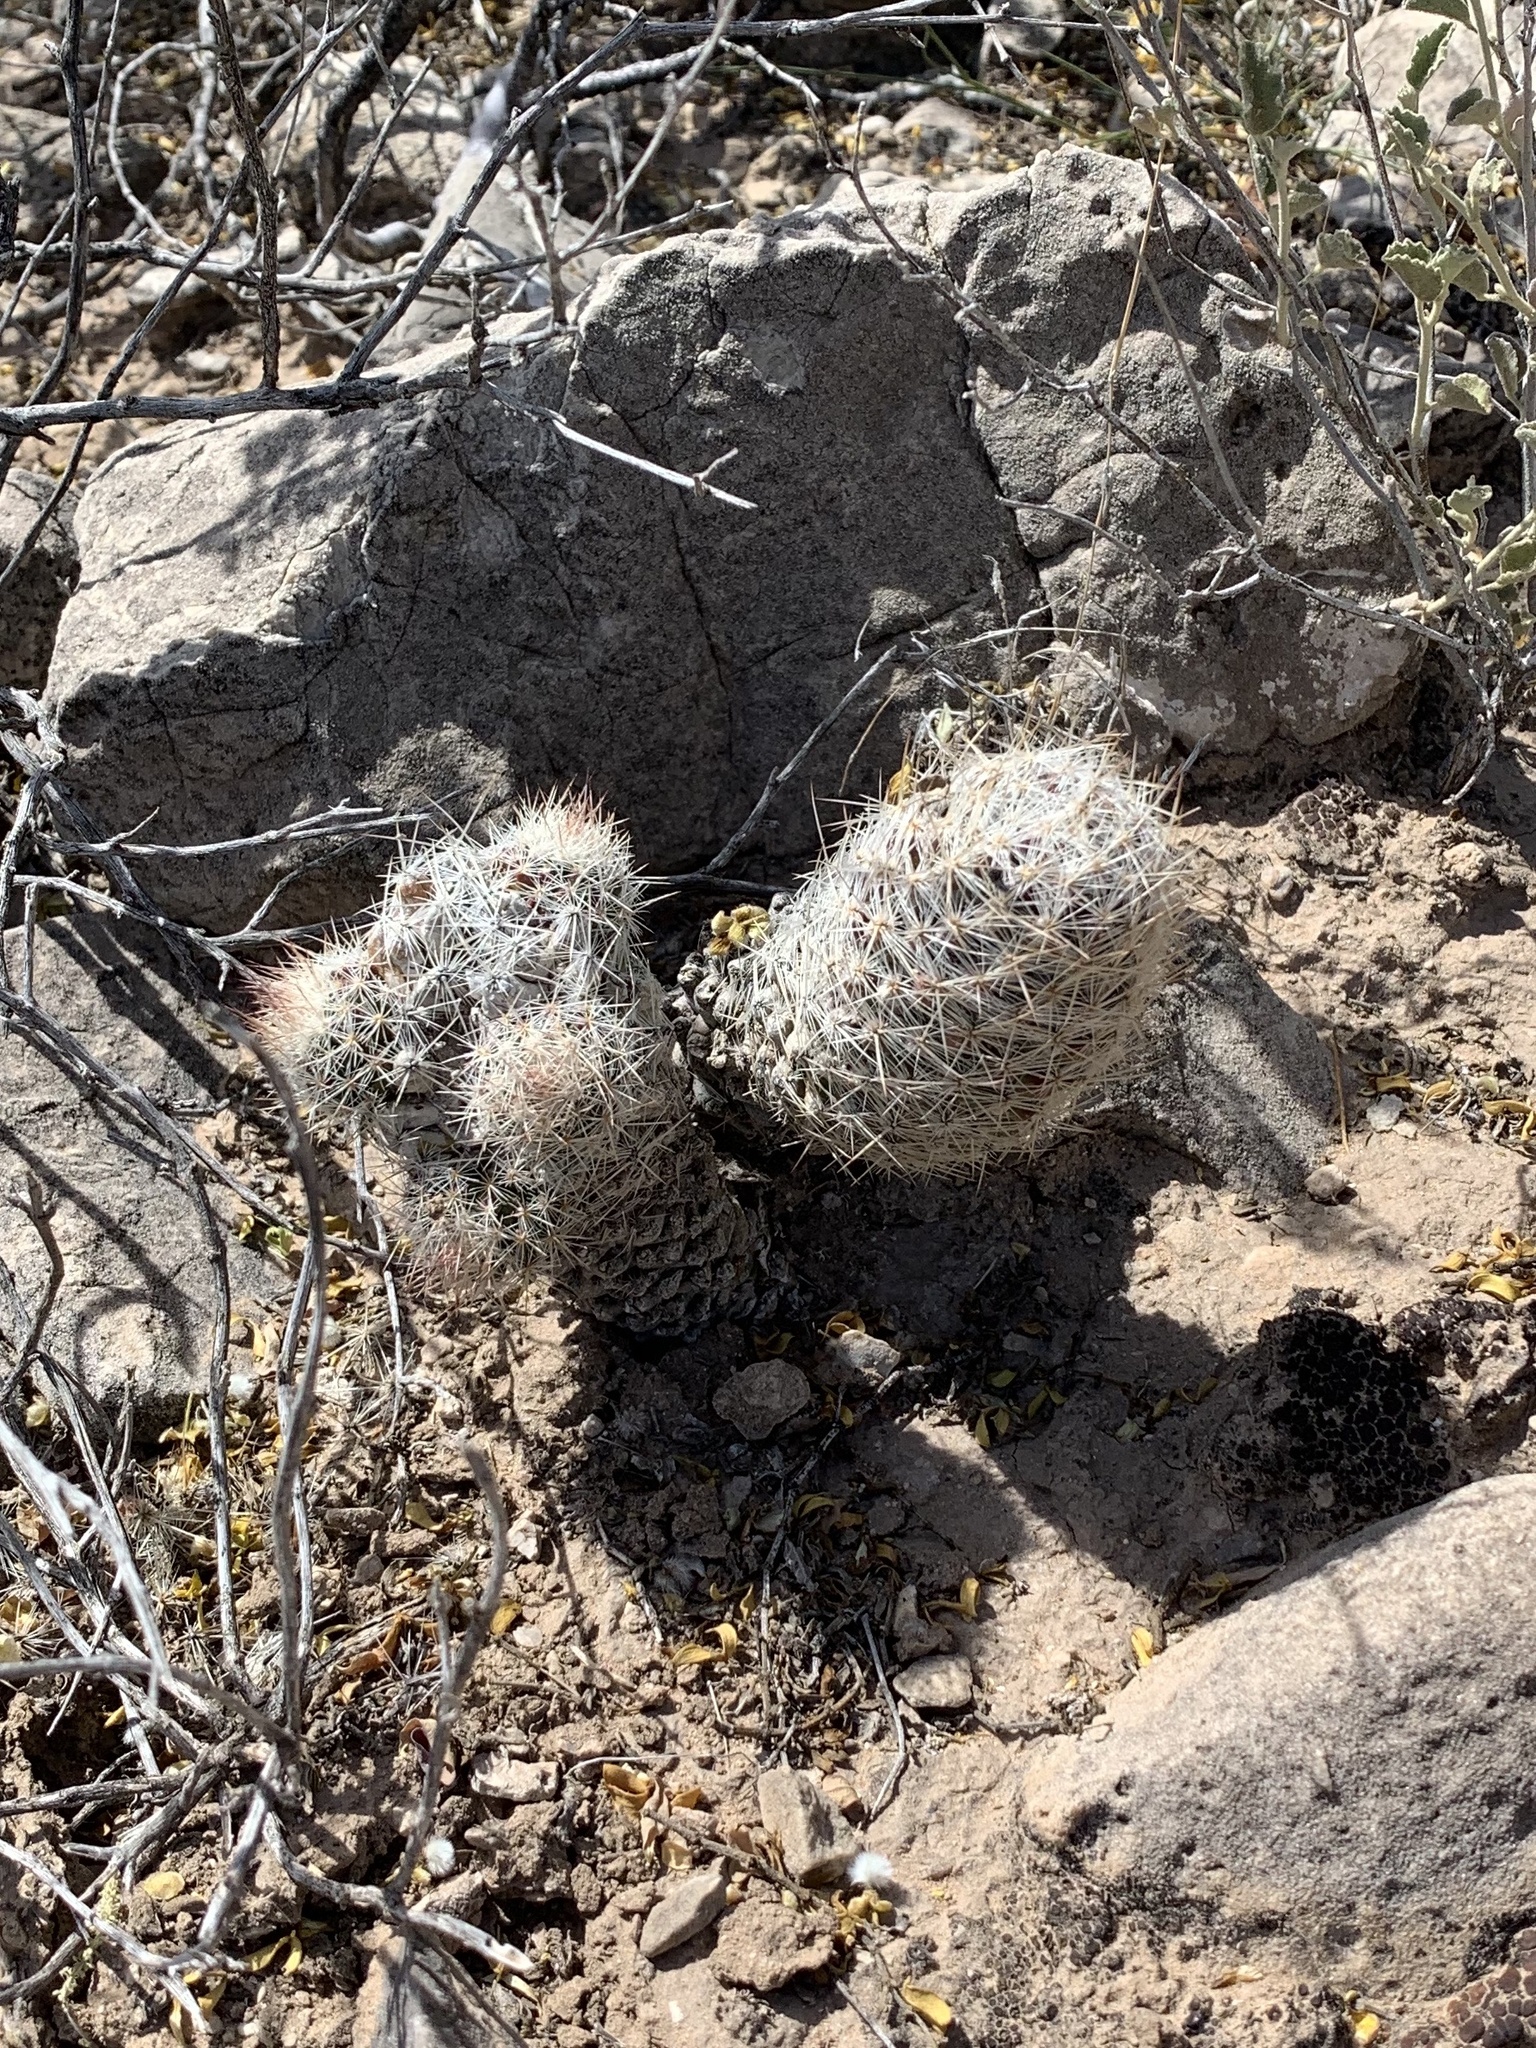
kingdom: Plantae
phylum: Tracheophyta
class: Magnoliopsida
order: Caryophyllales
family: Cactaceae
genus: Pelecyphora
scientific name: Pelecyphora tuberculosa
